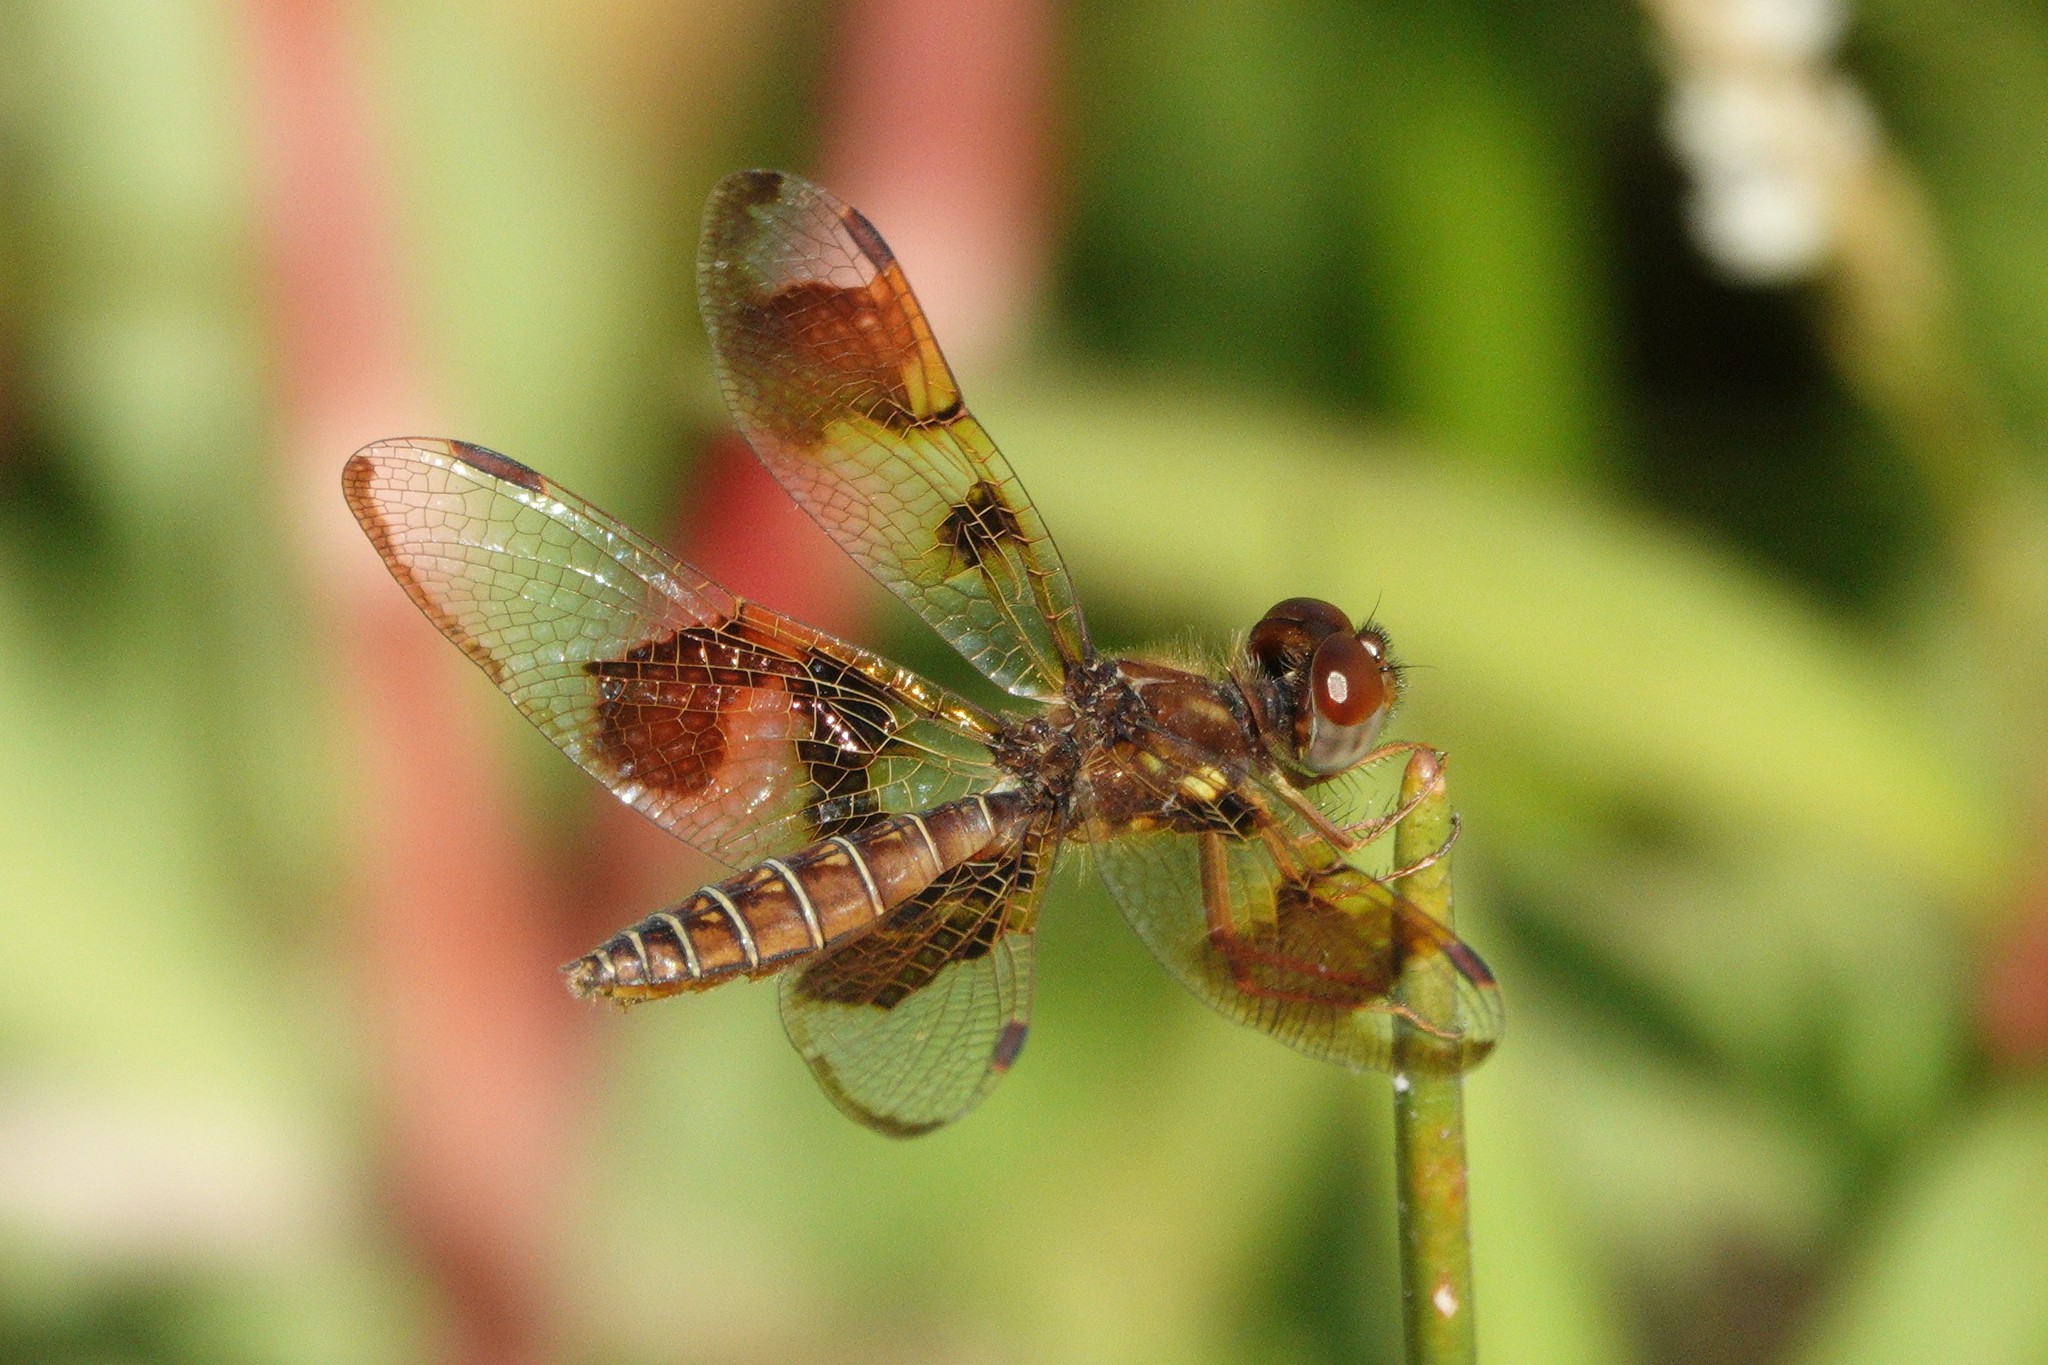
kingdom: Animalia
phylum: Arthropoda
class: Insecta
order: Odonata
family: Libellulidae
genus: Perithemis
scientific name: Perithemis tenera
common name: Eastern amberwing
